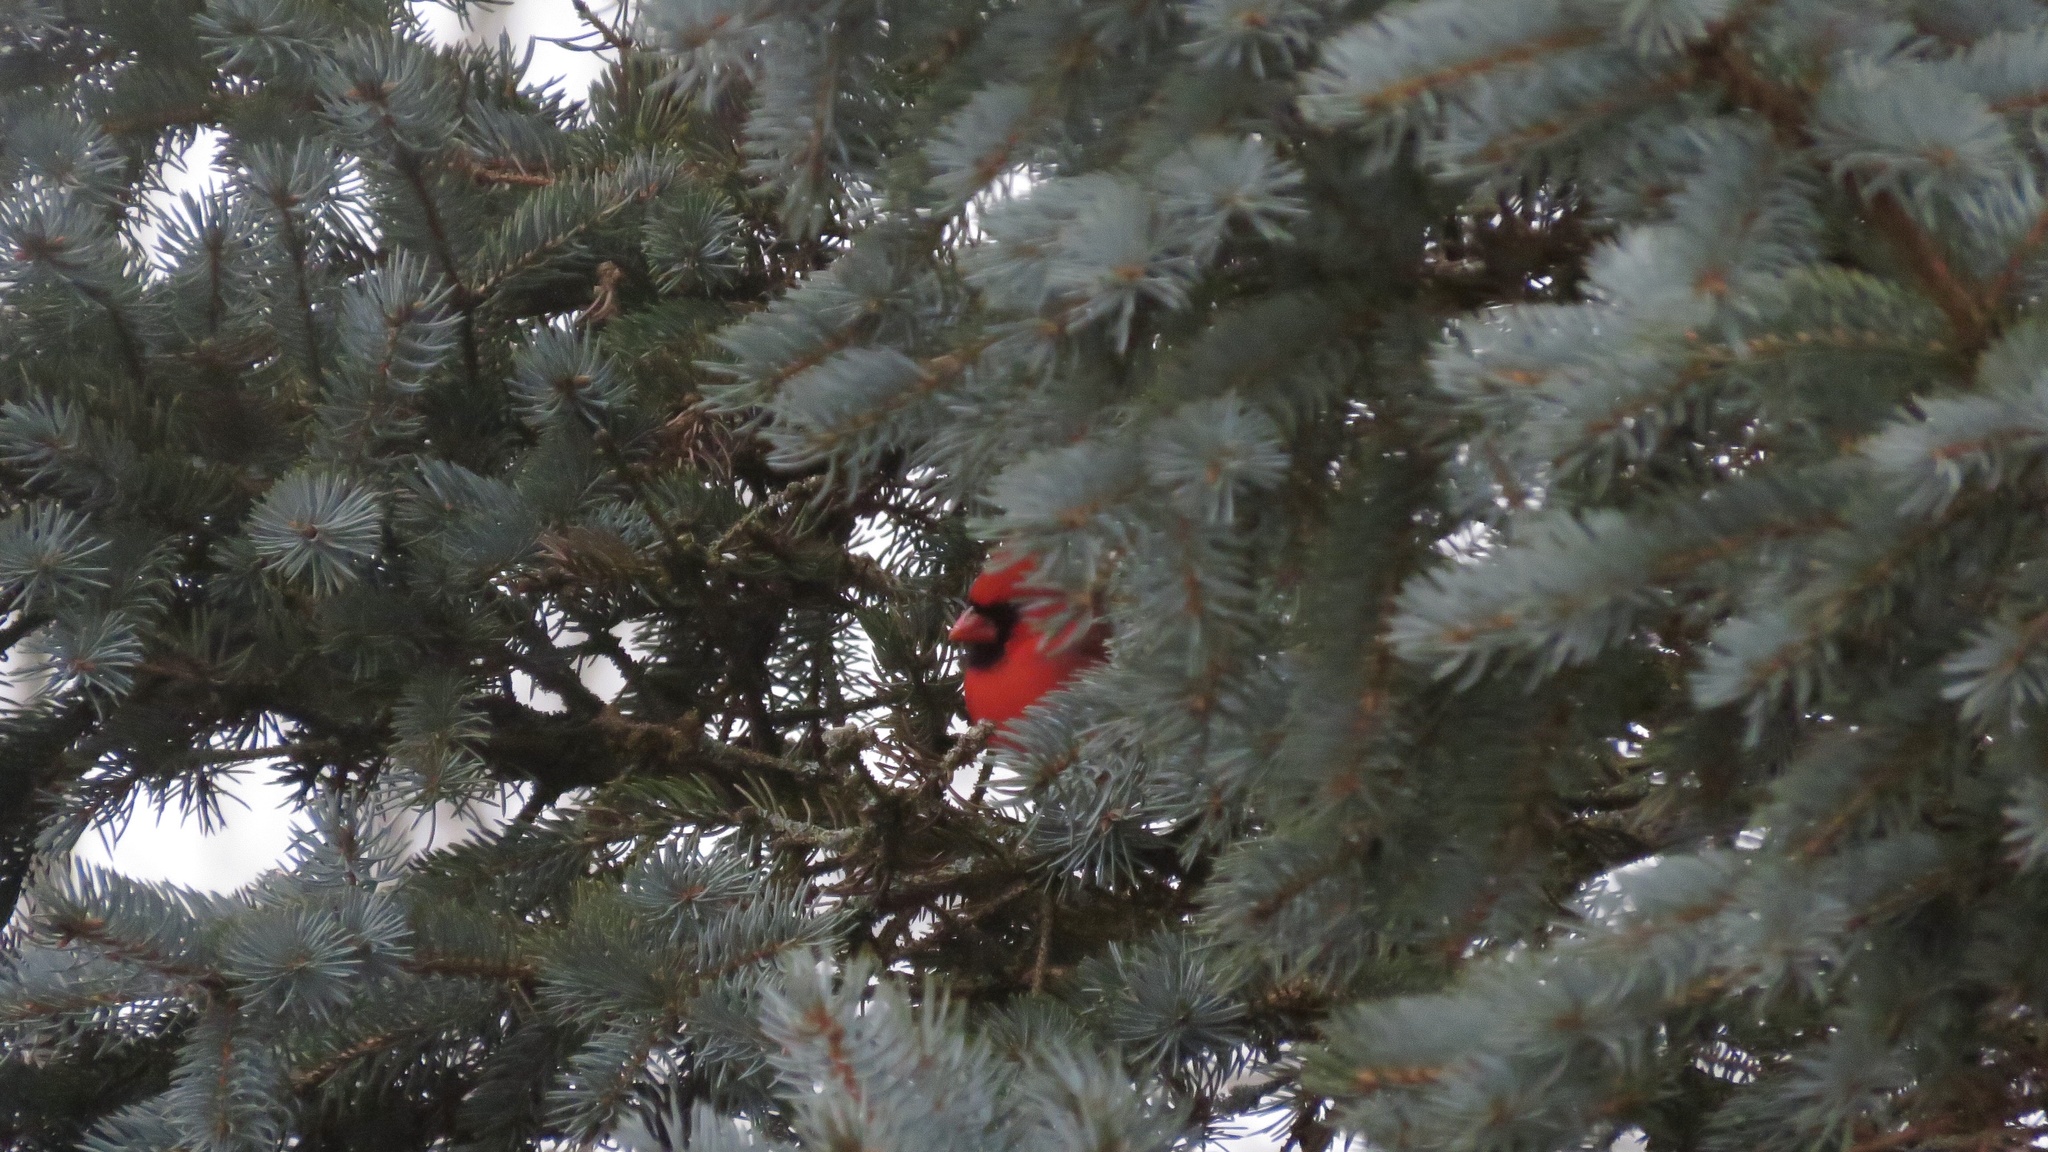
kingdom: Animalia
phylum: Chordata
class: Aves
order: Passeriformes
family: Cardinalidae
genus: Cardinalis
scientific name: Cardinalis cardinalis
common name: Northern cardinal
